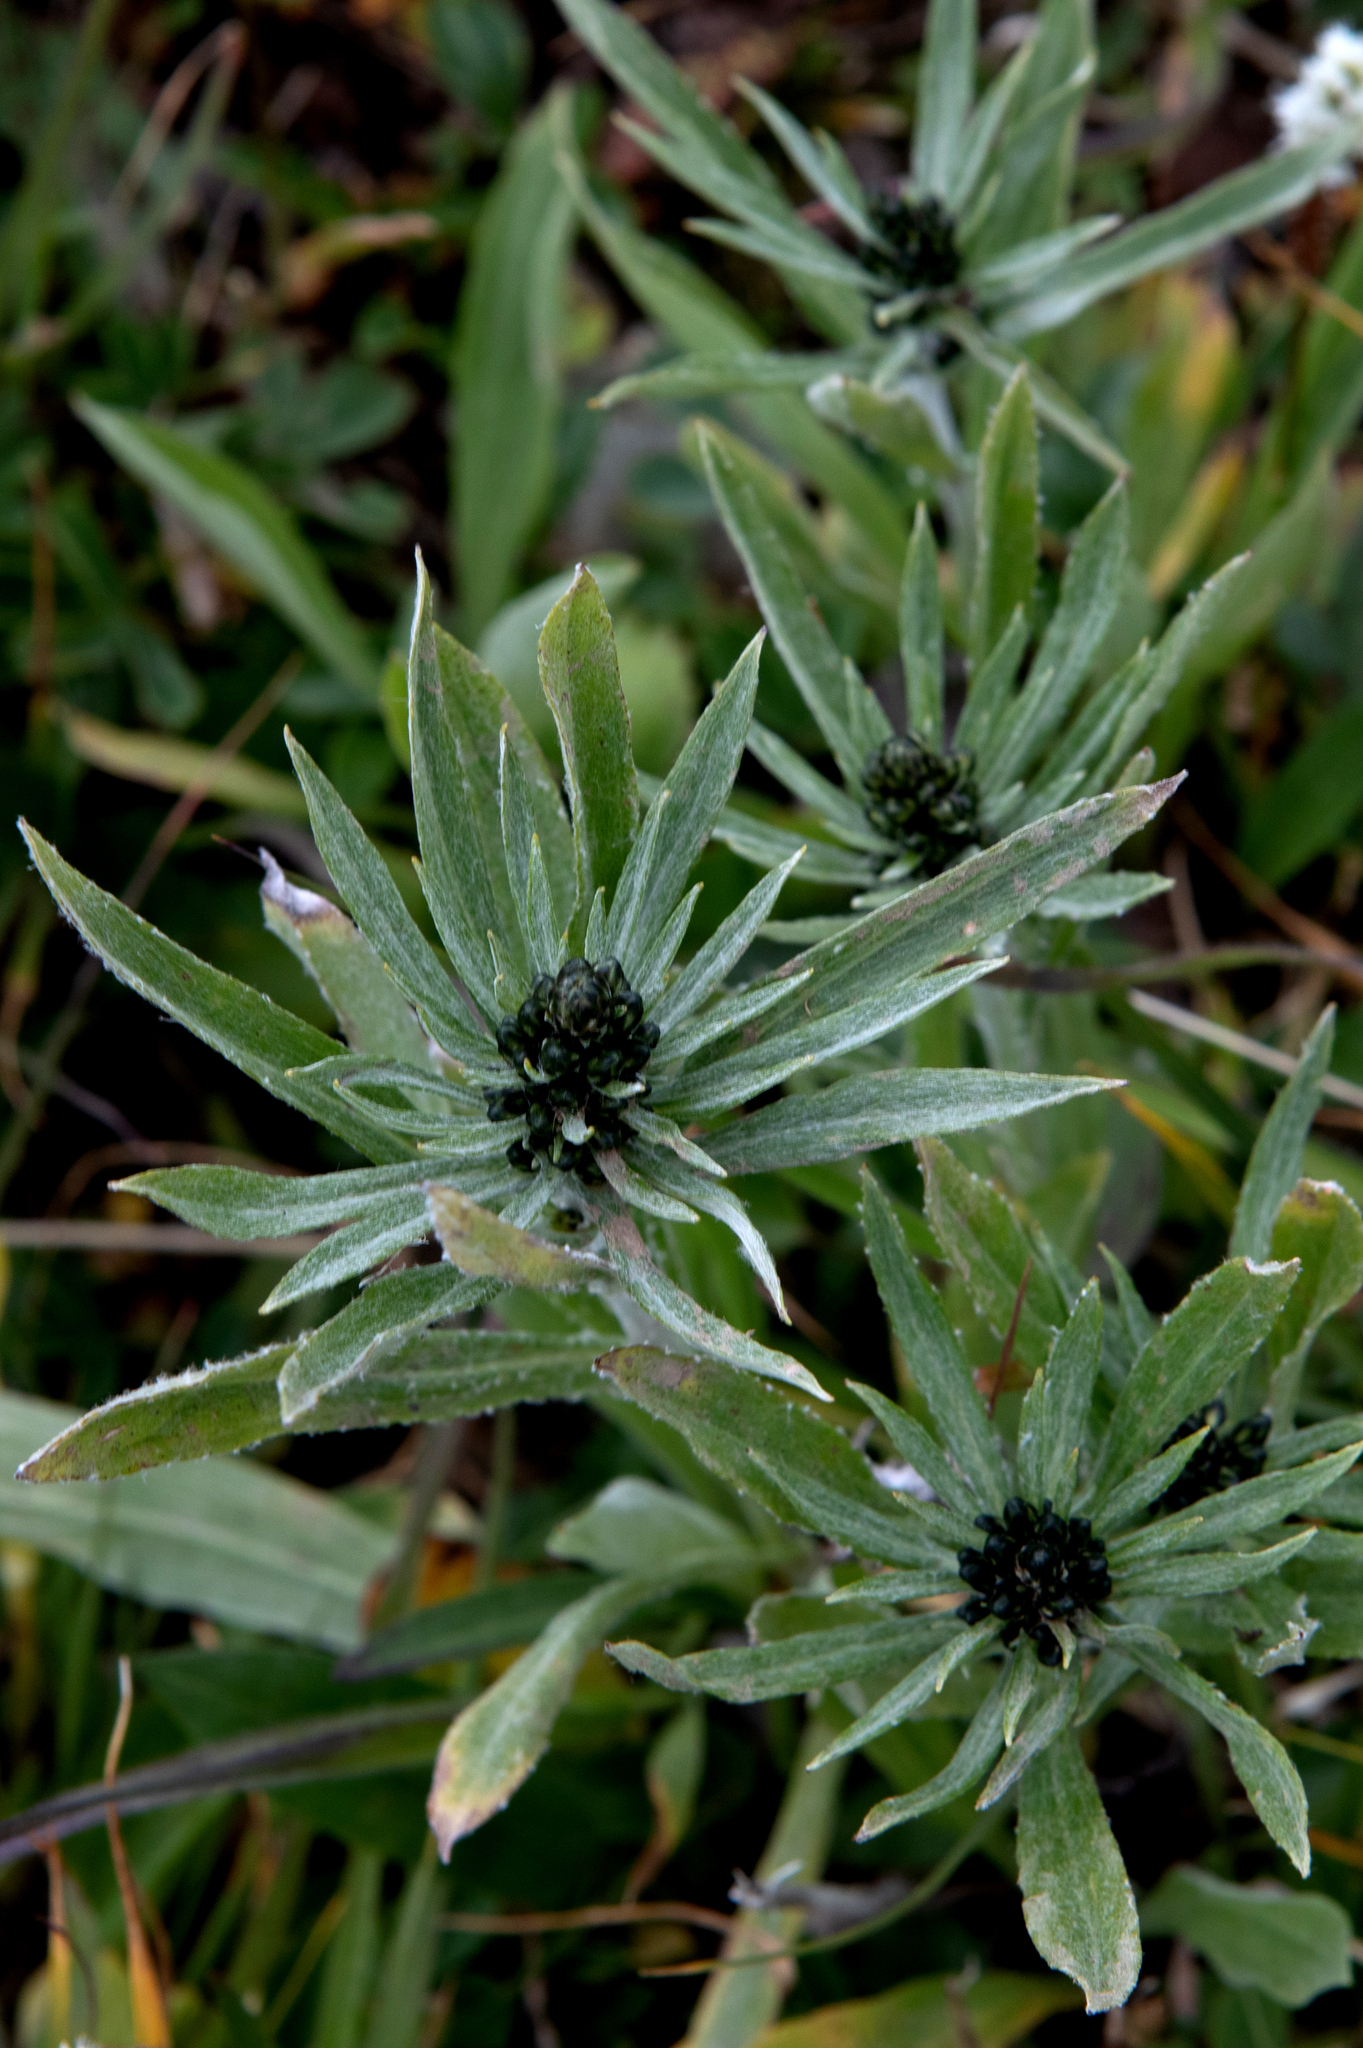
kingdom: Plantae
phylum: Tracheophyta
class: Magnoliopsida
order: Asterales
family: Asteraceae
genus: Omalotheca
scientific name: Omalotheca norvegica
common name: Norwegian arctic-cudweed
